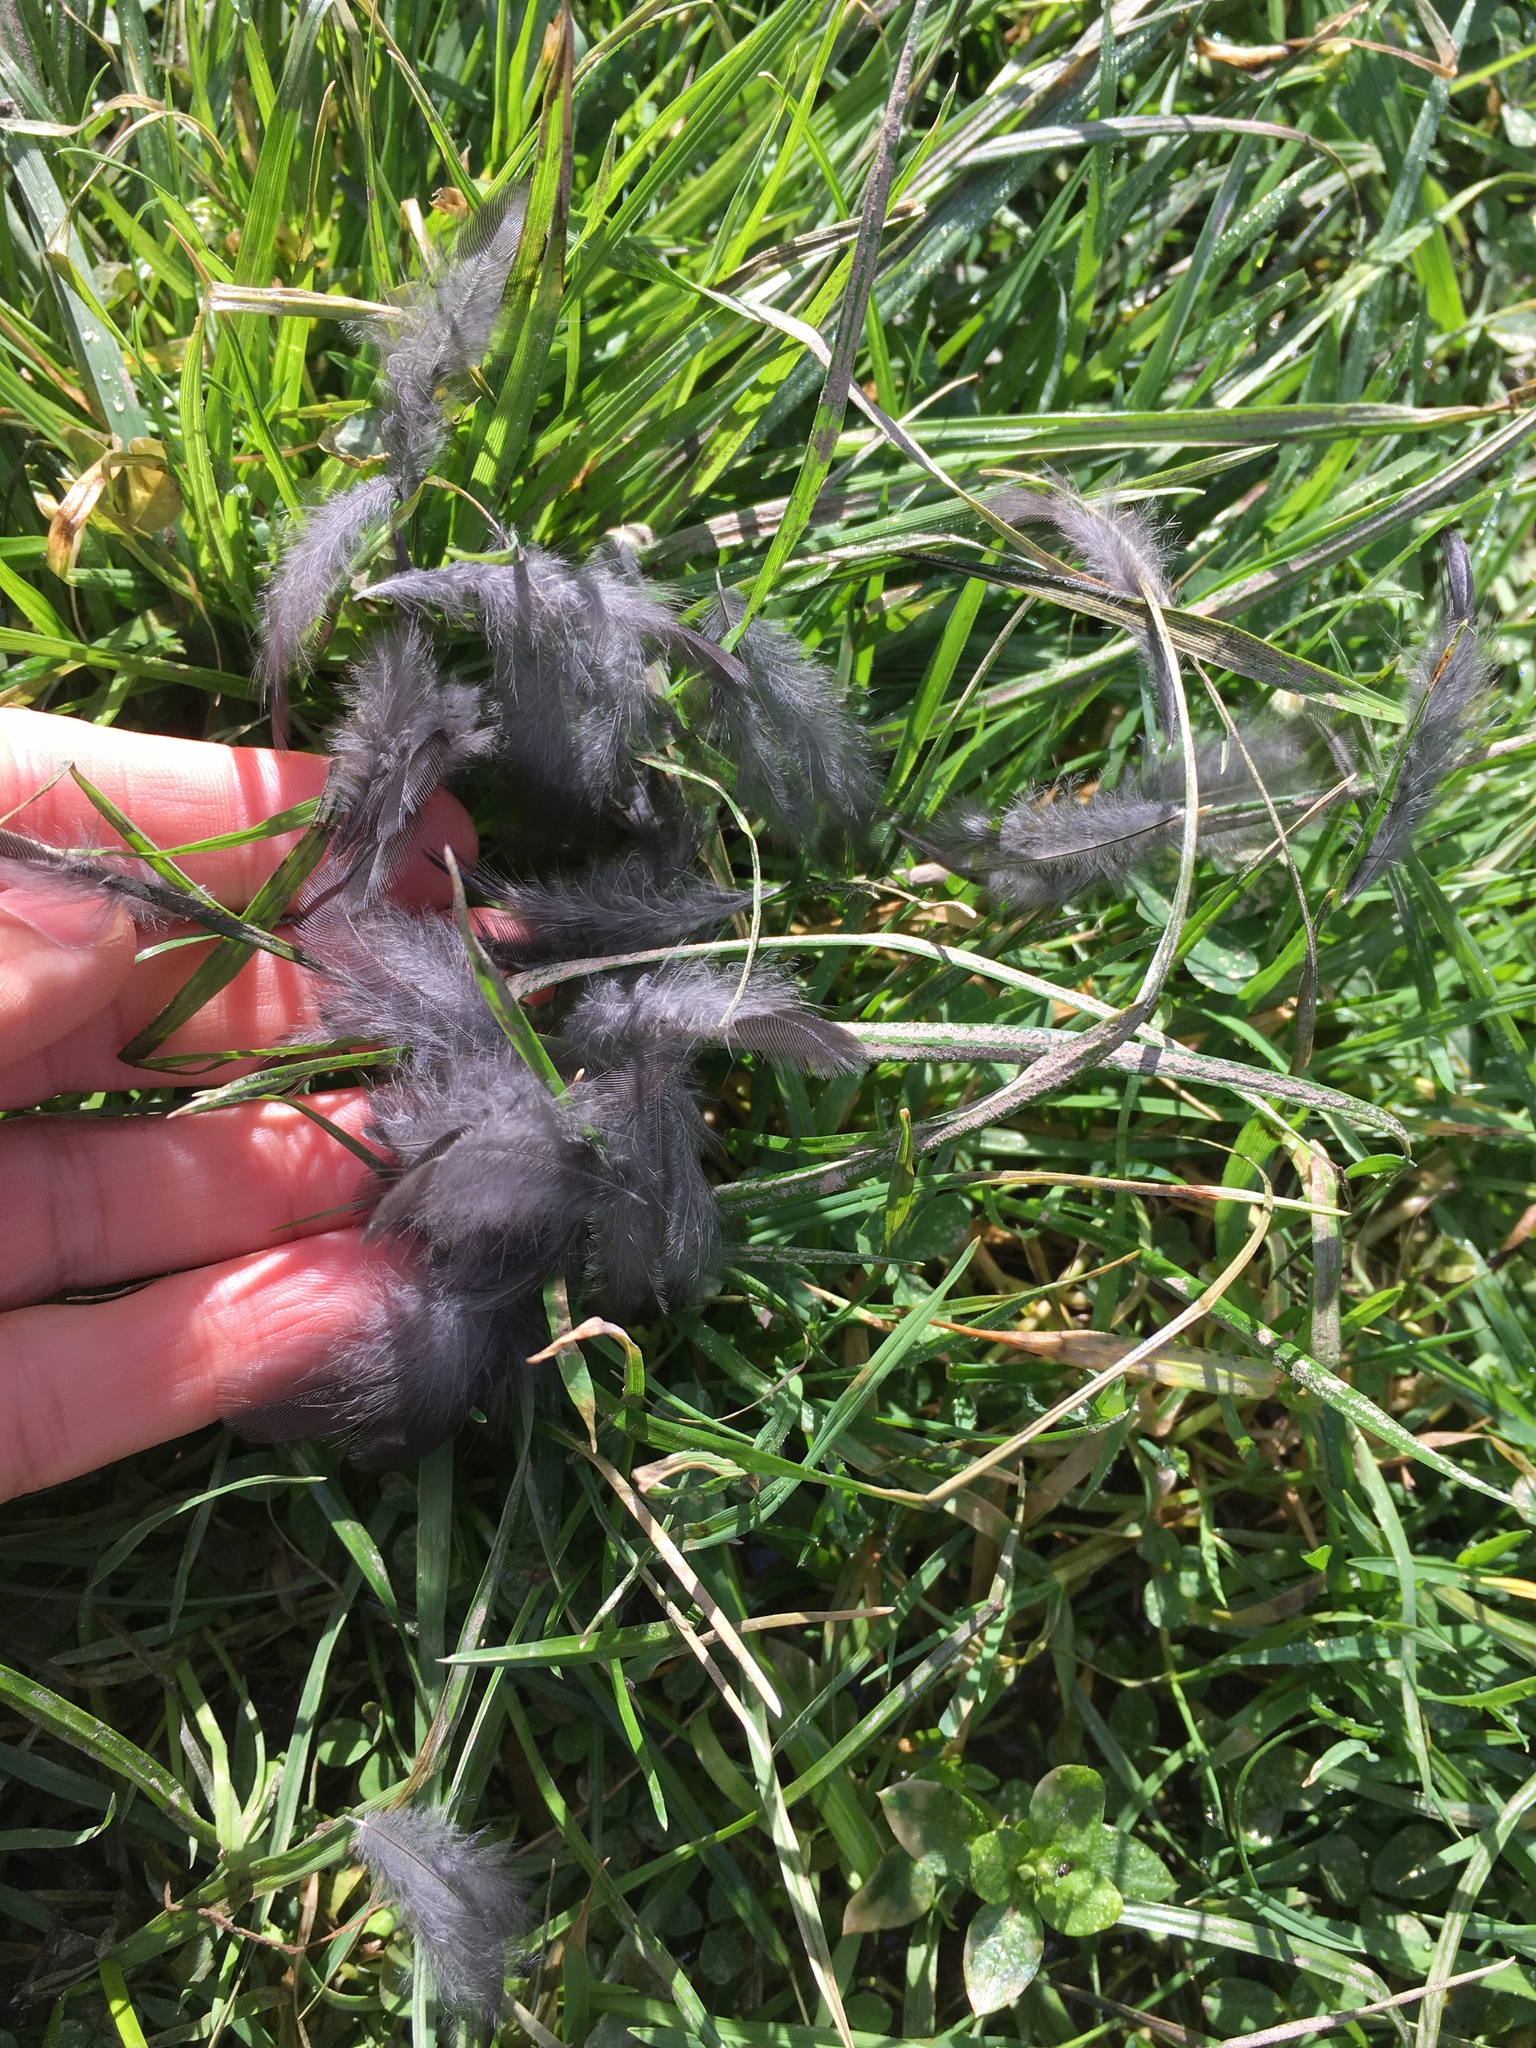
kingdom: Animalia
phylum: Chordata
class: Aves
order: Passeriformes
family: Turdidae
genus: Turdus
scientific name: Turdus merula
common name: Common blackbird
